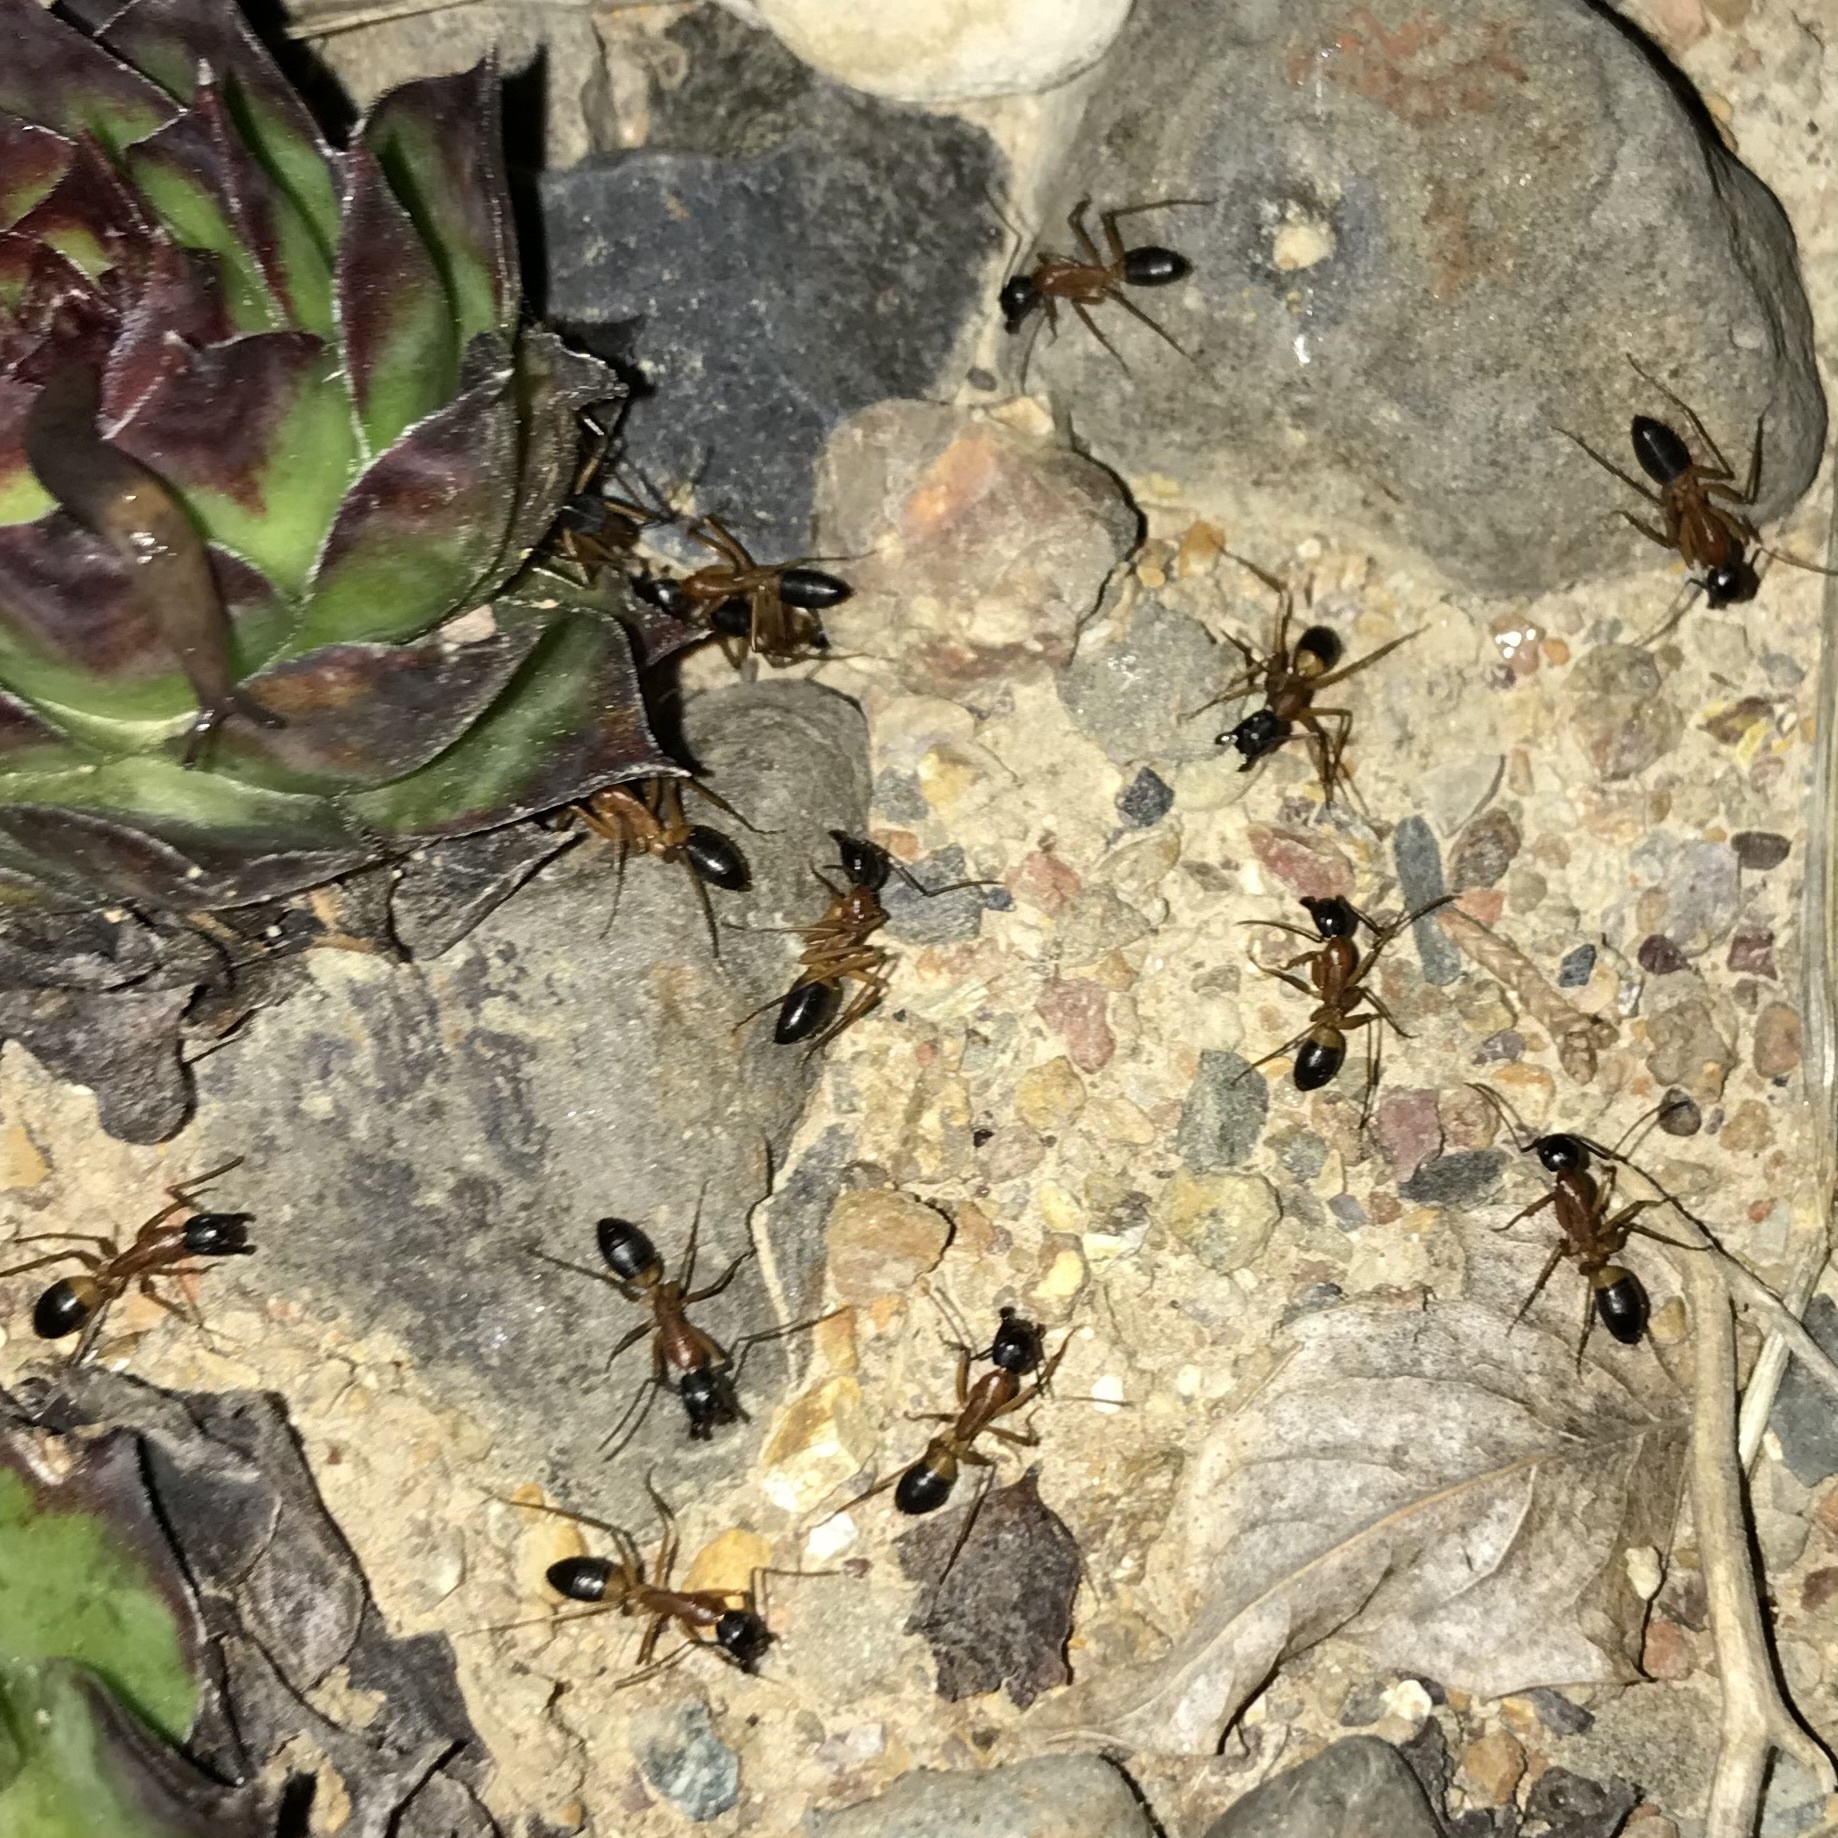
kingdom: Animalia
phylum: Arthropoda
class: Insecta
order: Hymenoptera
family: Formicidae
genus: Camponotus
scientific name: Camponotus consobrinus
